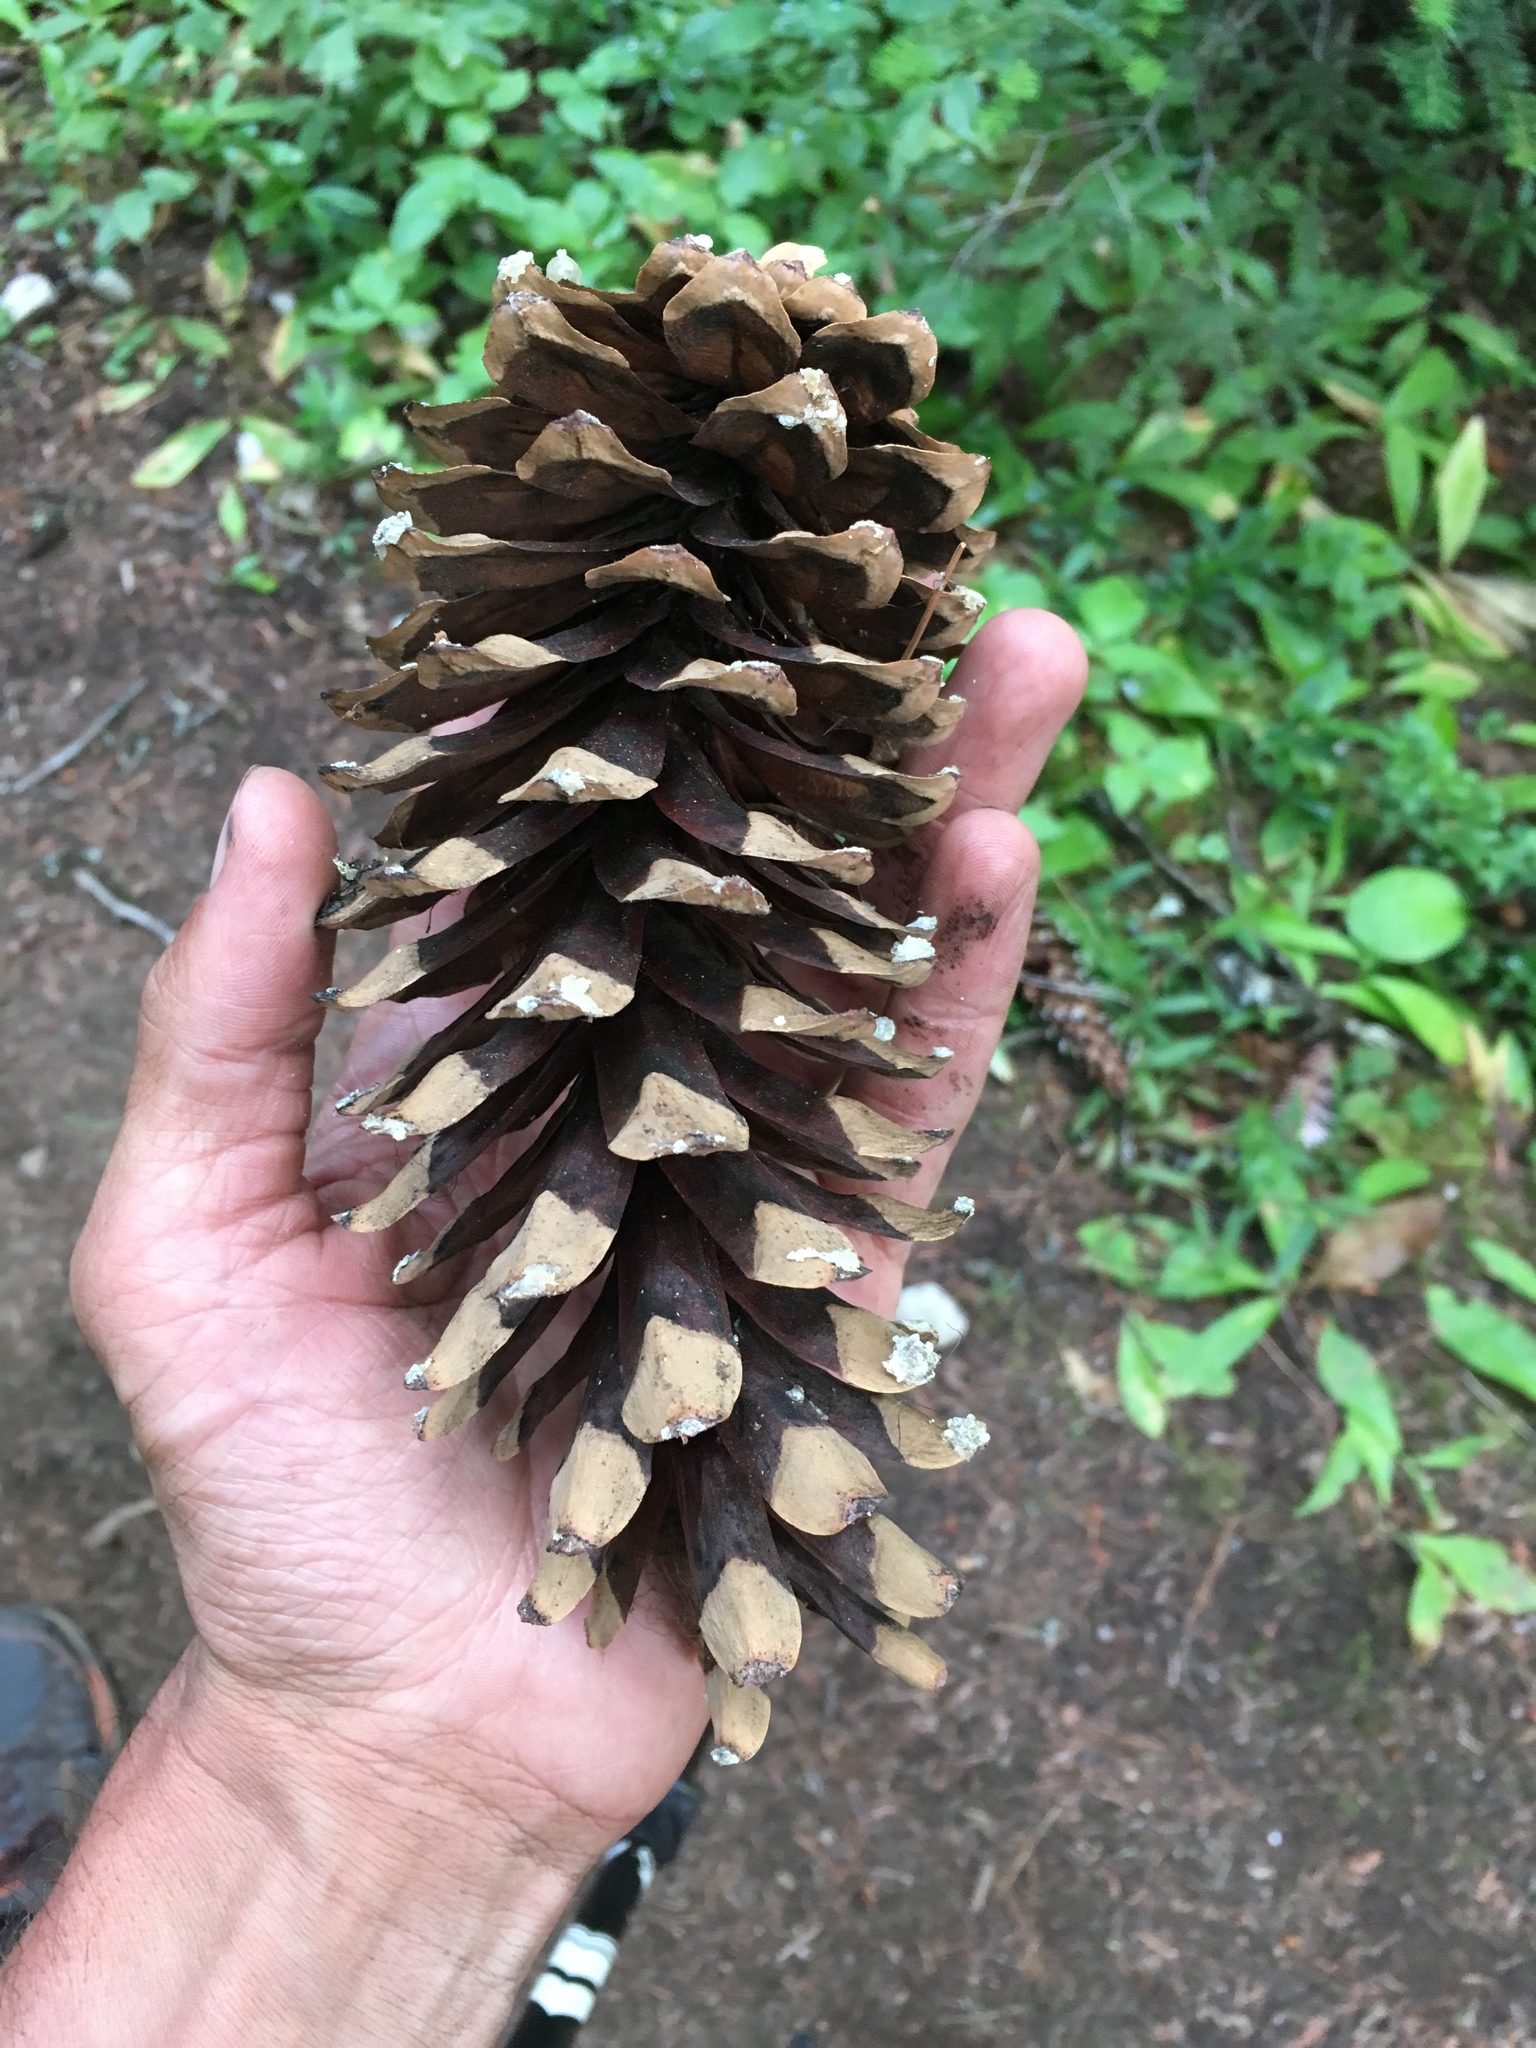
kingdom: Plantae
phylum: Tracheophyta
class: Pinopsida
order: Pinales
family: Pinaceae
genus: Pinus
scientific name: Pinus monticola
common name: Western white pine
